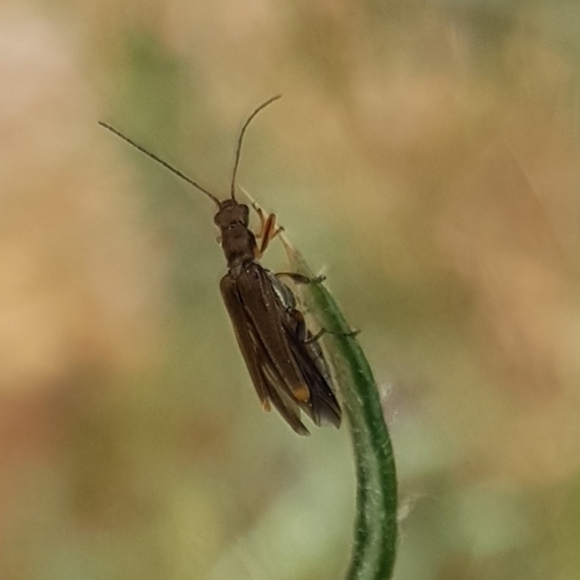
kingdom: Animalia
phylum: Arthropoda
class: Insecta
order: Coleoptera
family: Oedemeridae
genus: Oedemera
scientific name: Oedemera barbara
